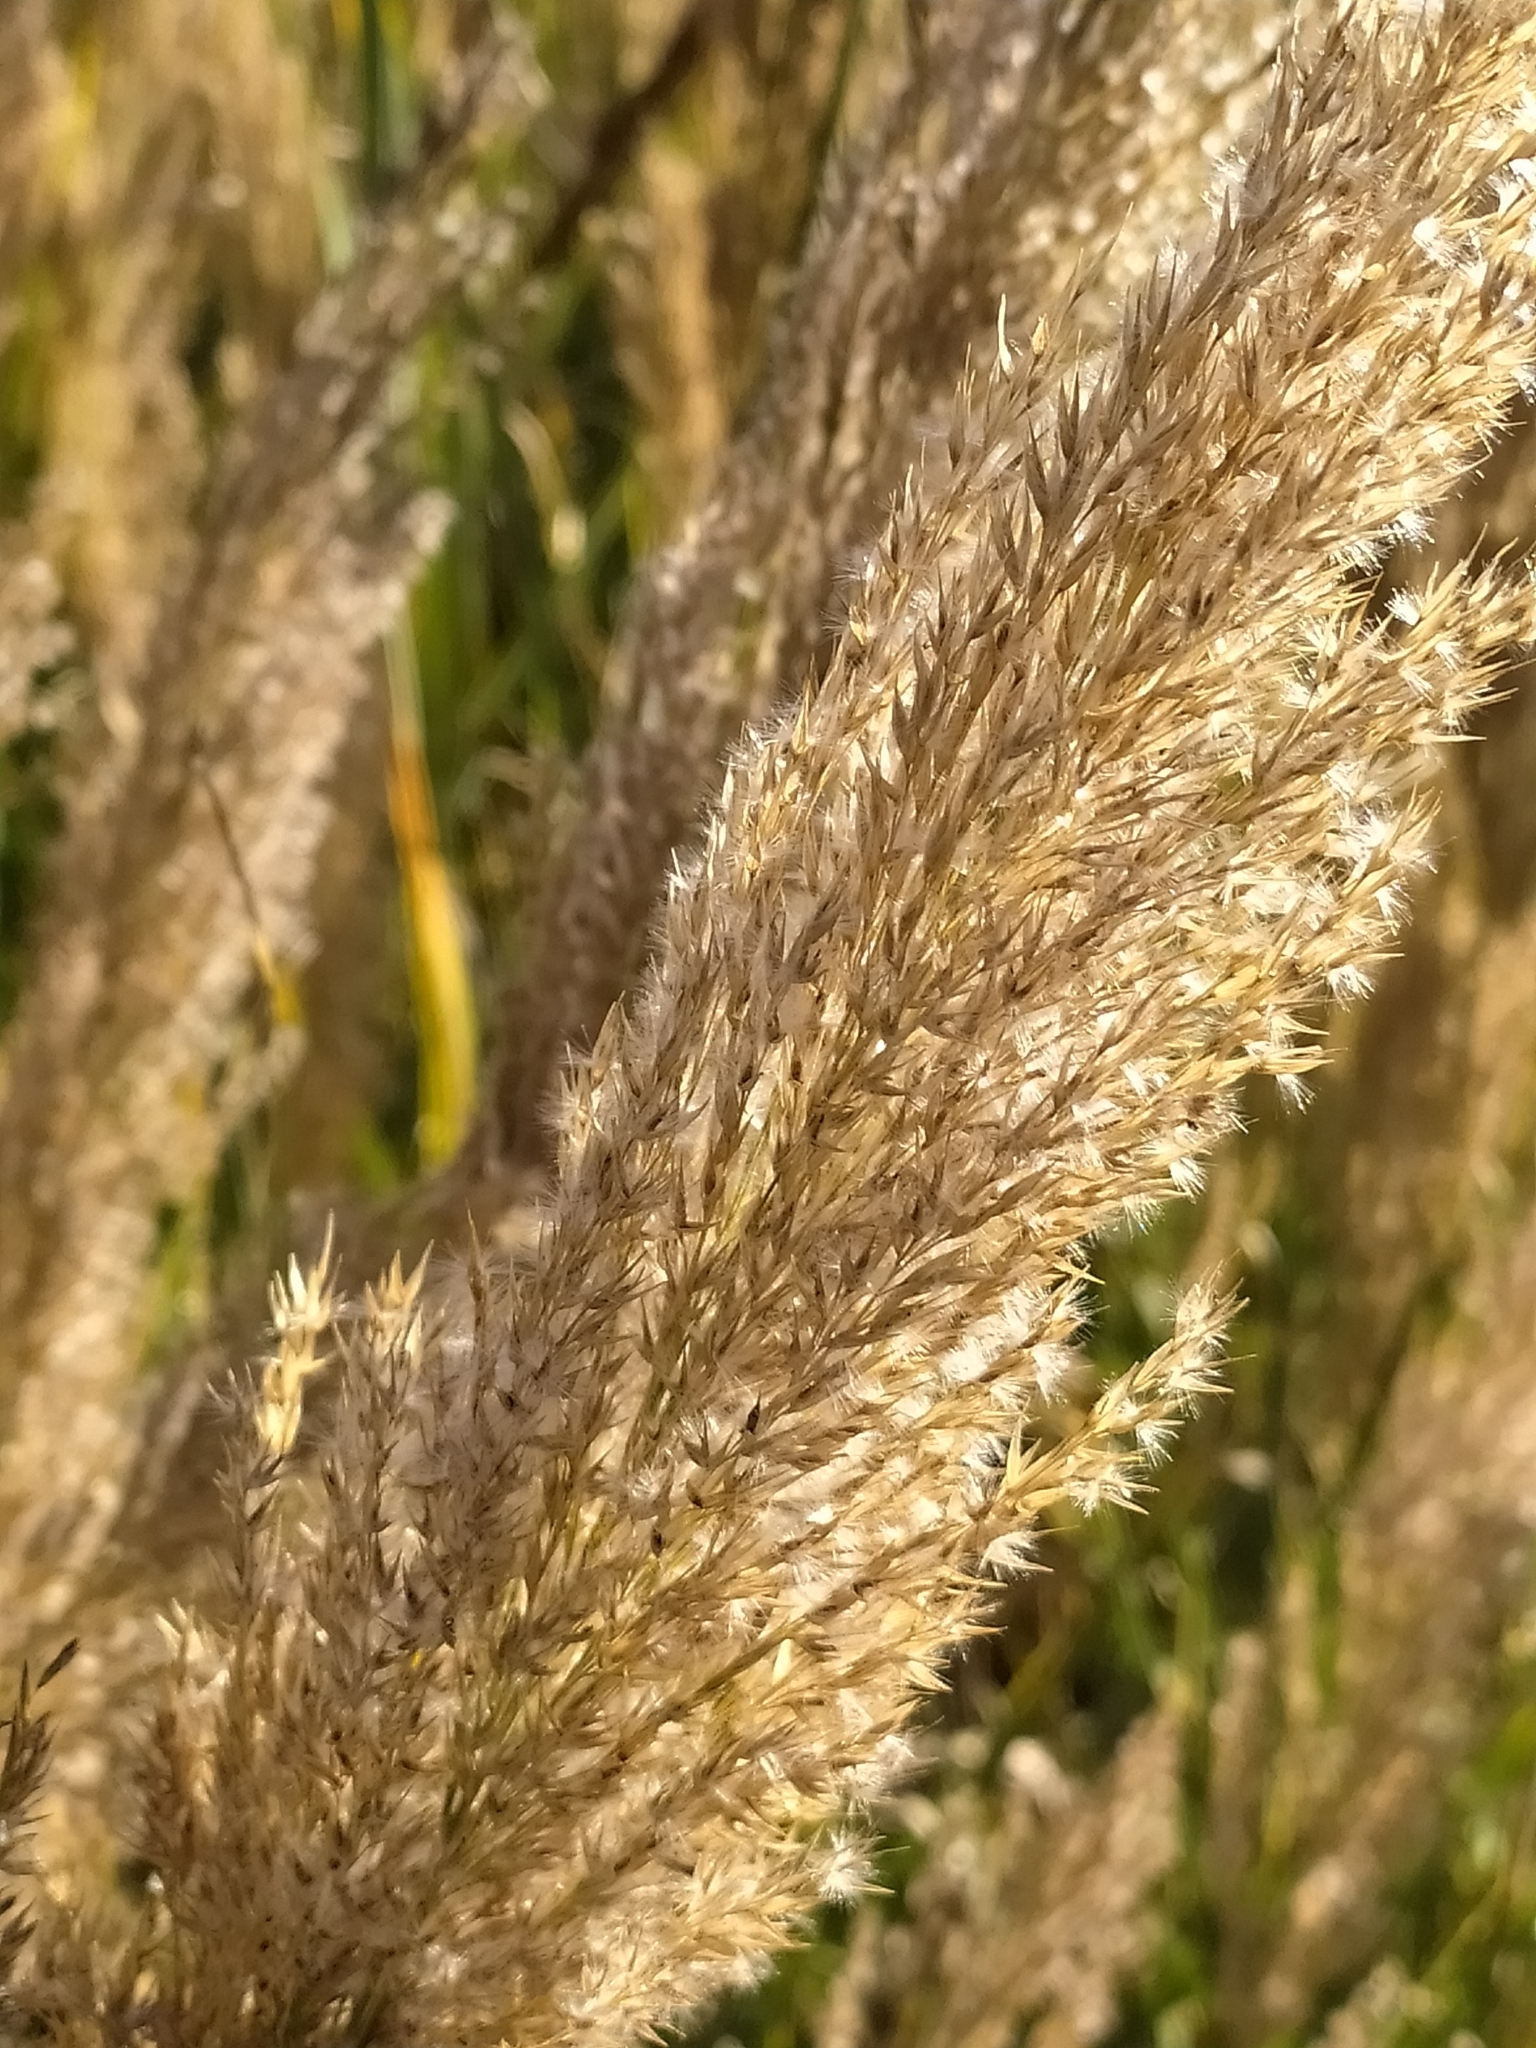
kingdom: Plantae
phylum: Tracheophyta
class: Liliopsida
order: Poales
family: Poaceae
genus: Arundo
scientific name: Arundo plinii
